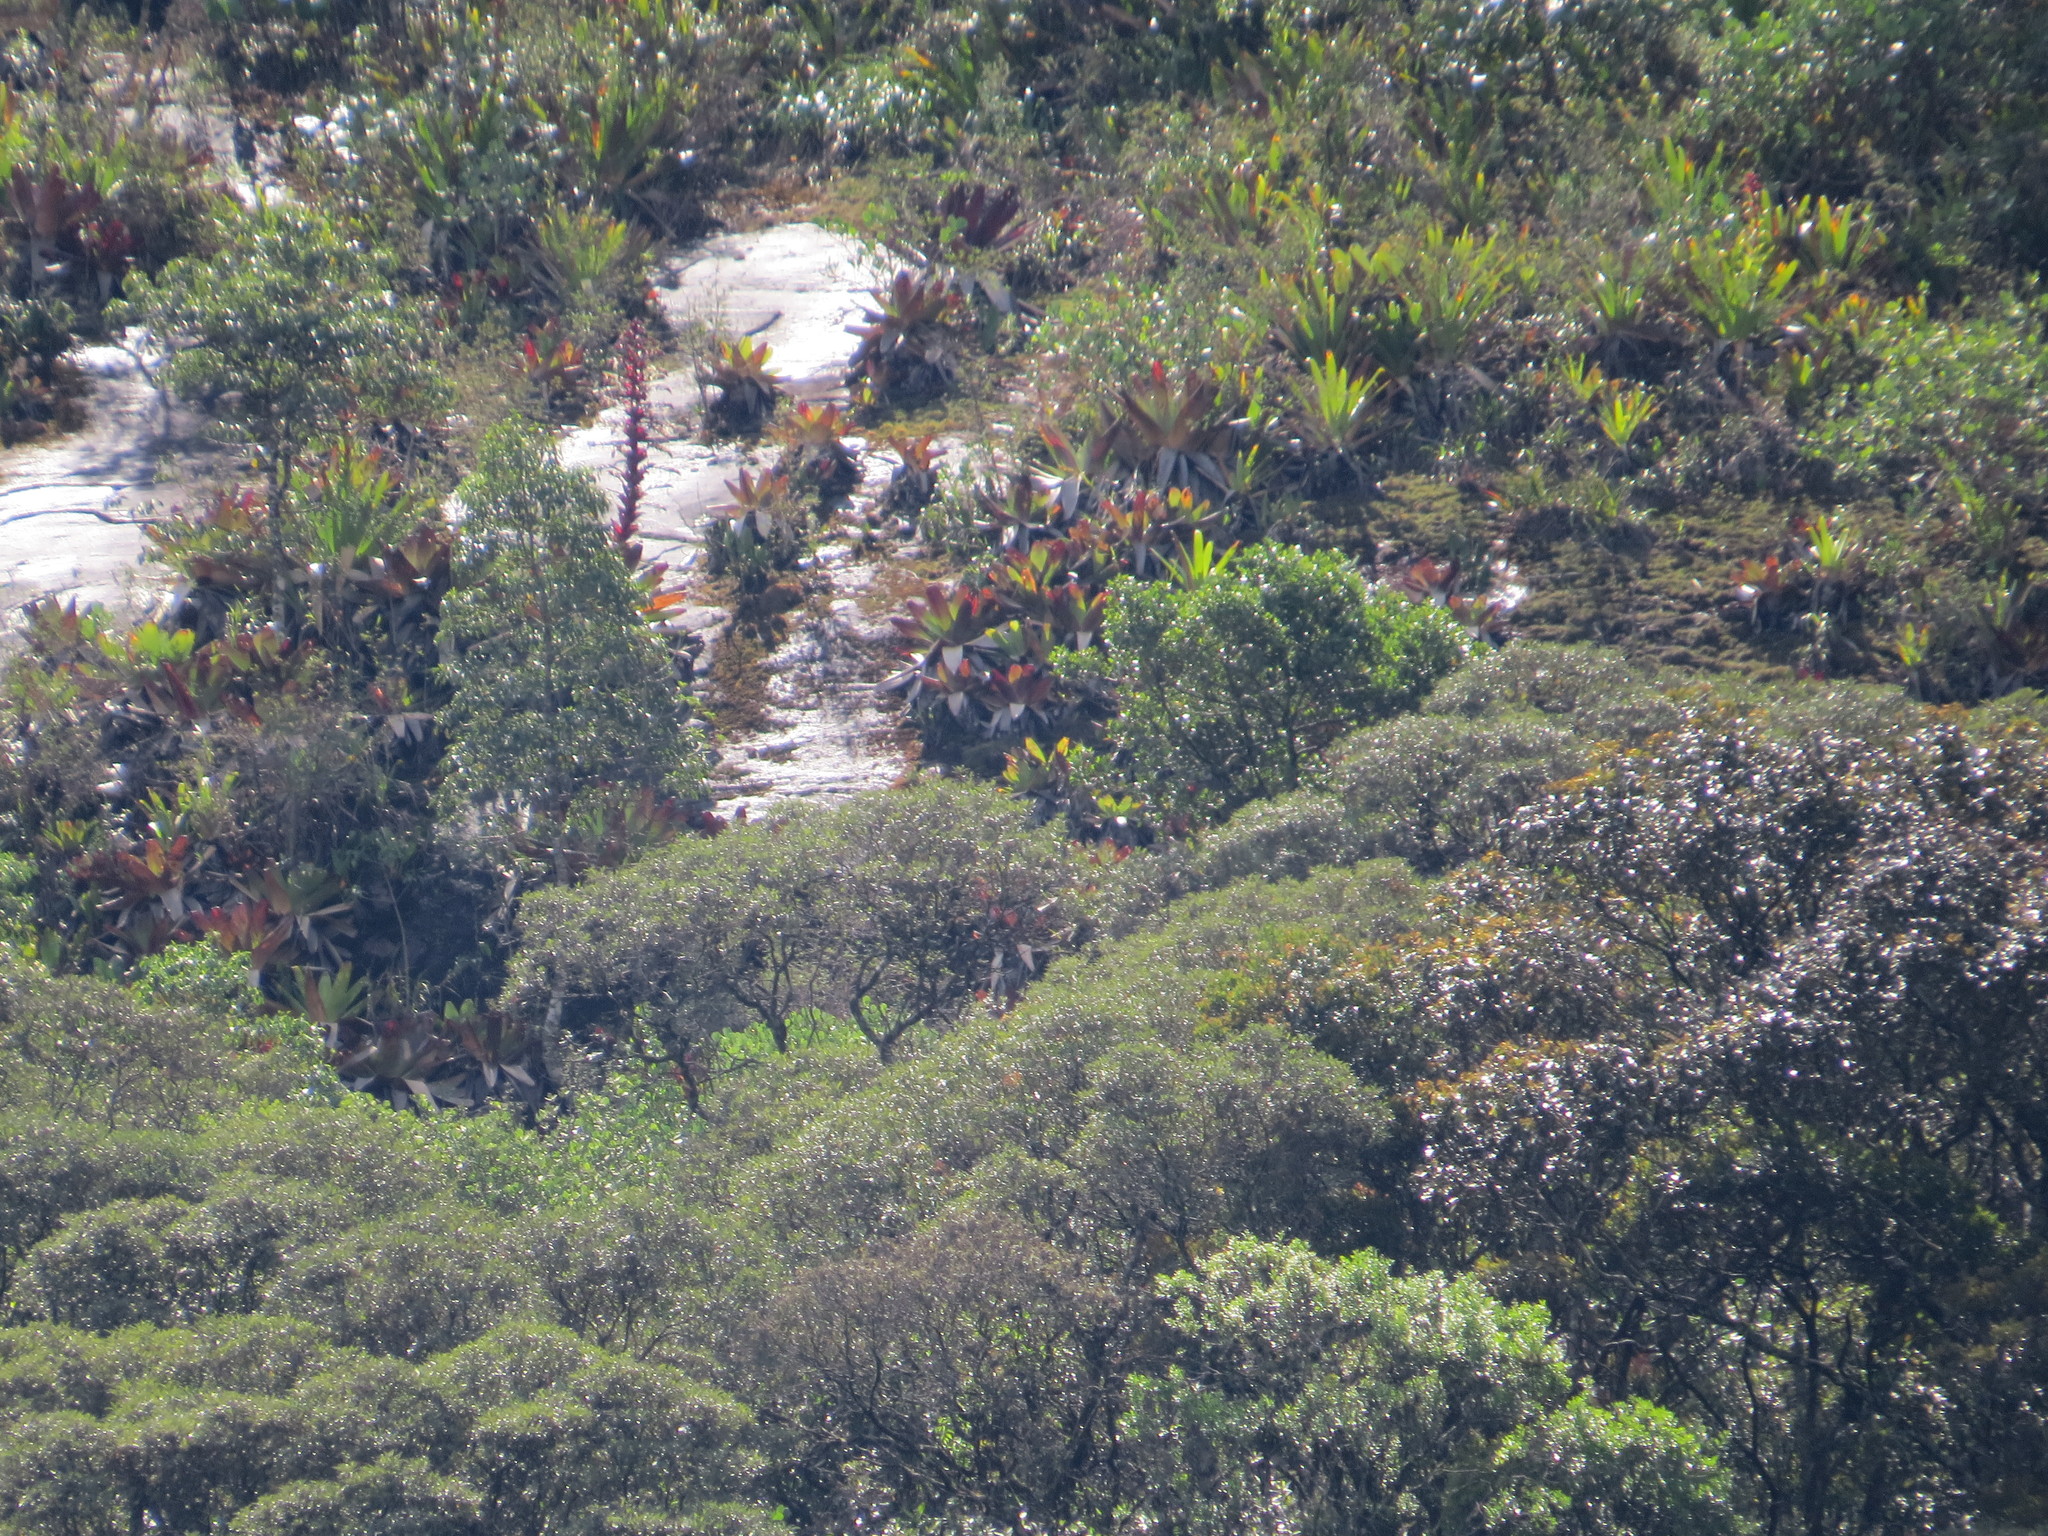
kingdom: Plantae
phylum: Tracheophyta
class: Liliopsida
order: Poales
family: Bromeliaceae
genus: Alcantarea
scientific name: Alcantarea imperialis
